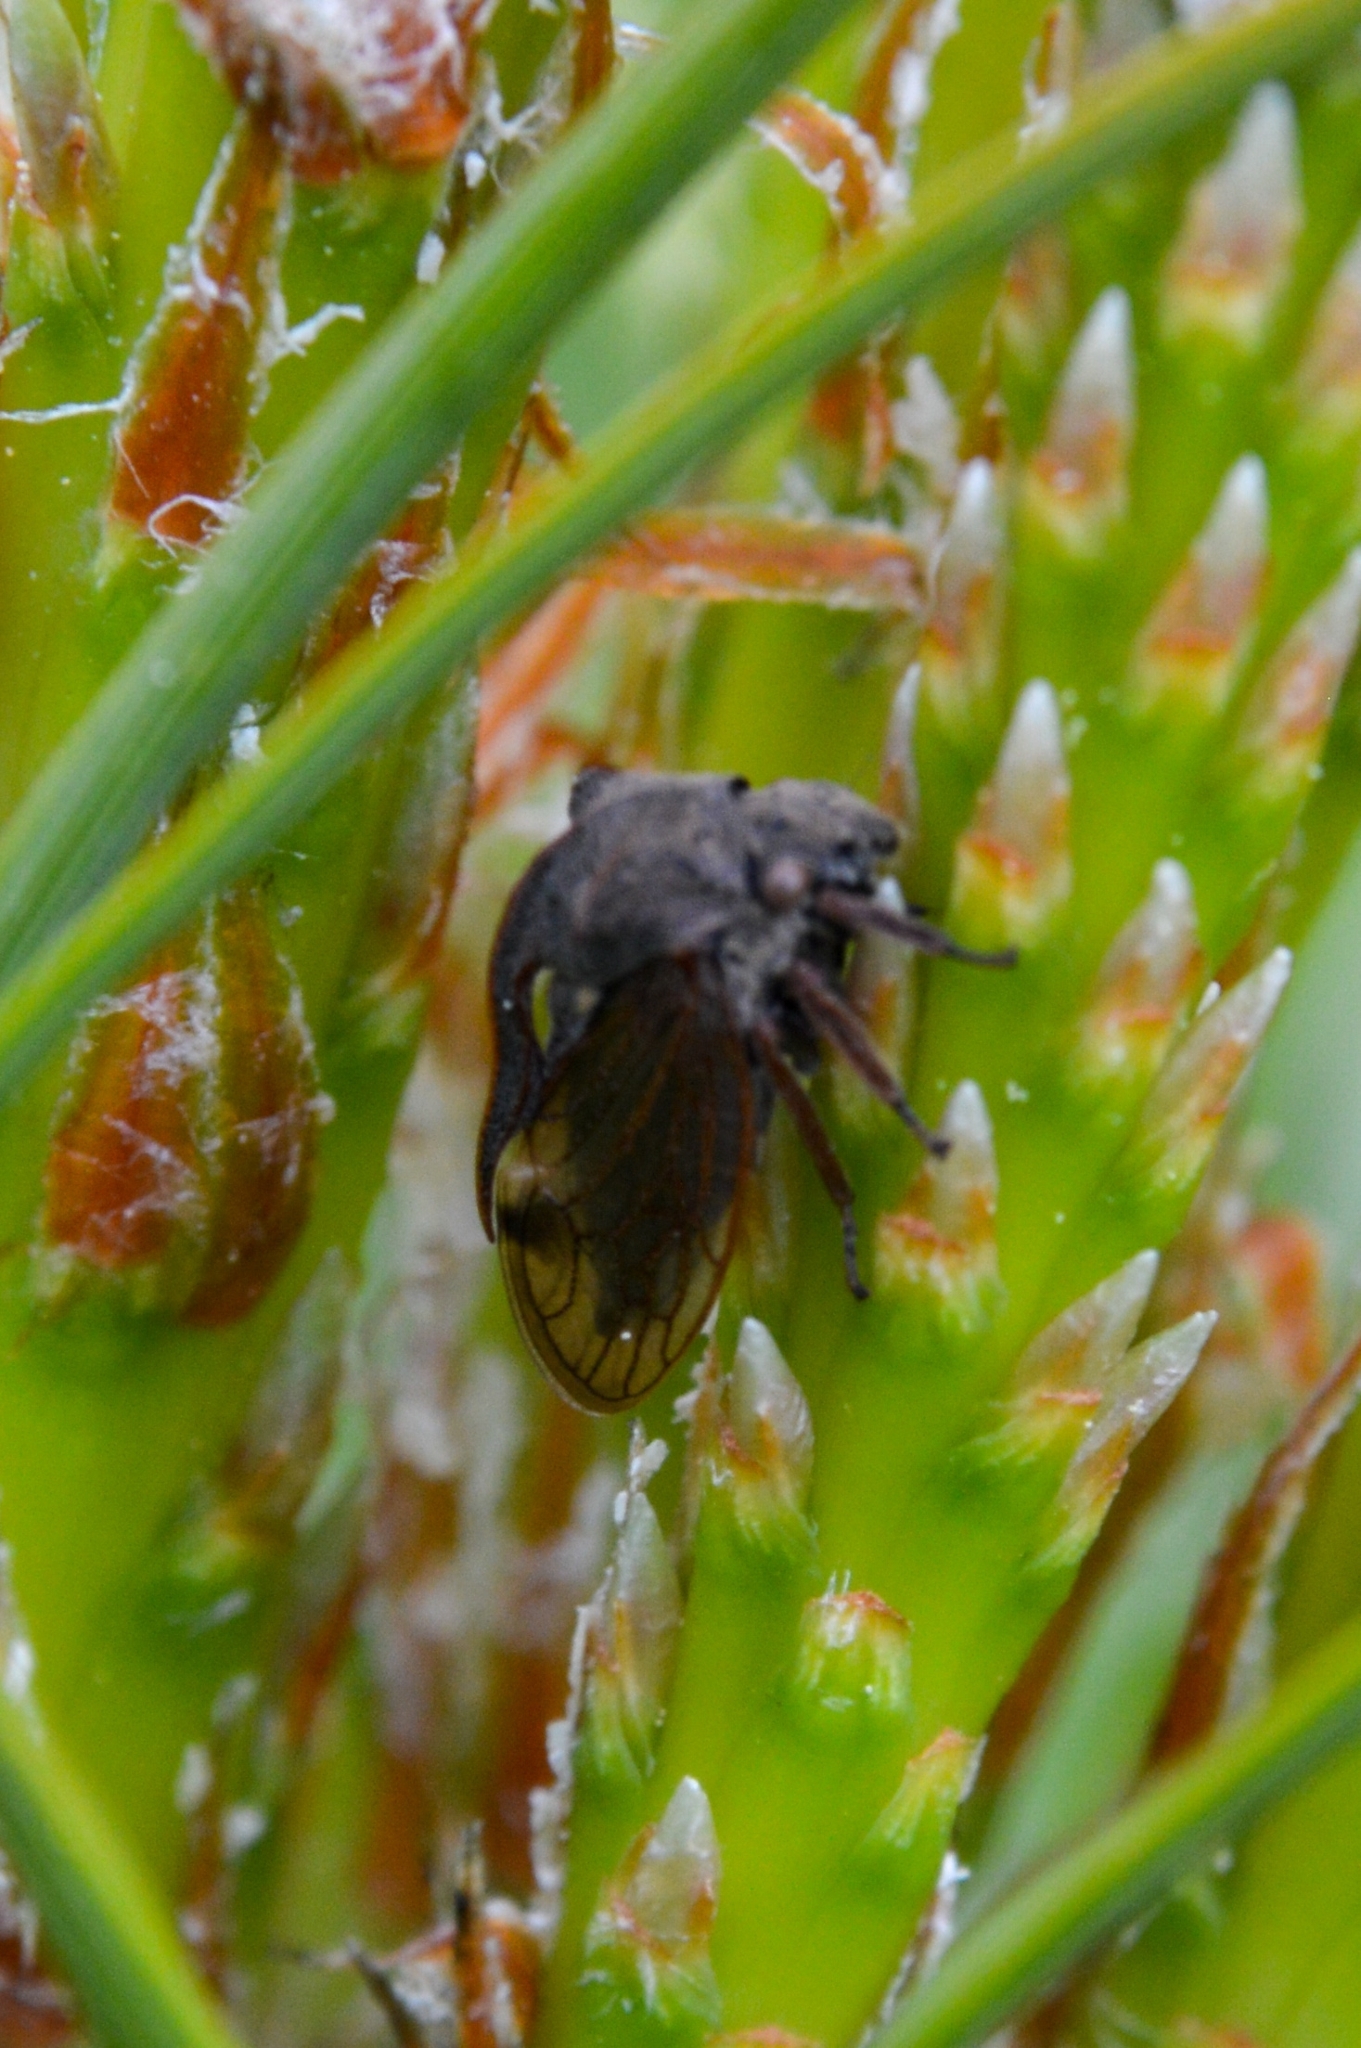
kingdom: Animalia
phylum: Arthropoda
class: Insecta
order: Hemiptera
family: Membracidae
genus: Centrotus
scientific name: Centrotus cornuta
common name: Treehopper
